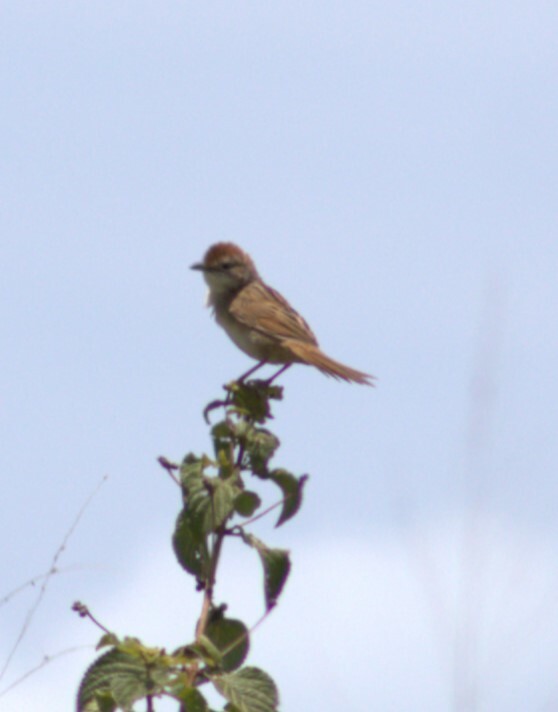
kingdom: Animalia
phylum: Chordata
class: Aves
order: Passeriformes
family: Locustellidae
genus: Megalurus
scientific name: Megalurus timoriensis
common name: Tawny grassbird
